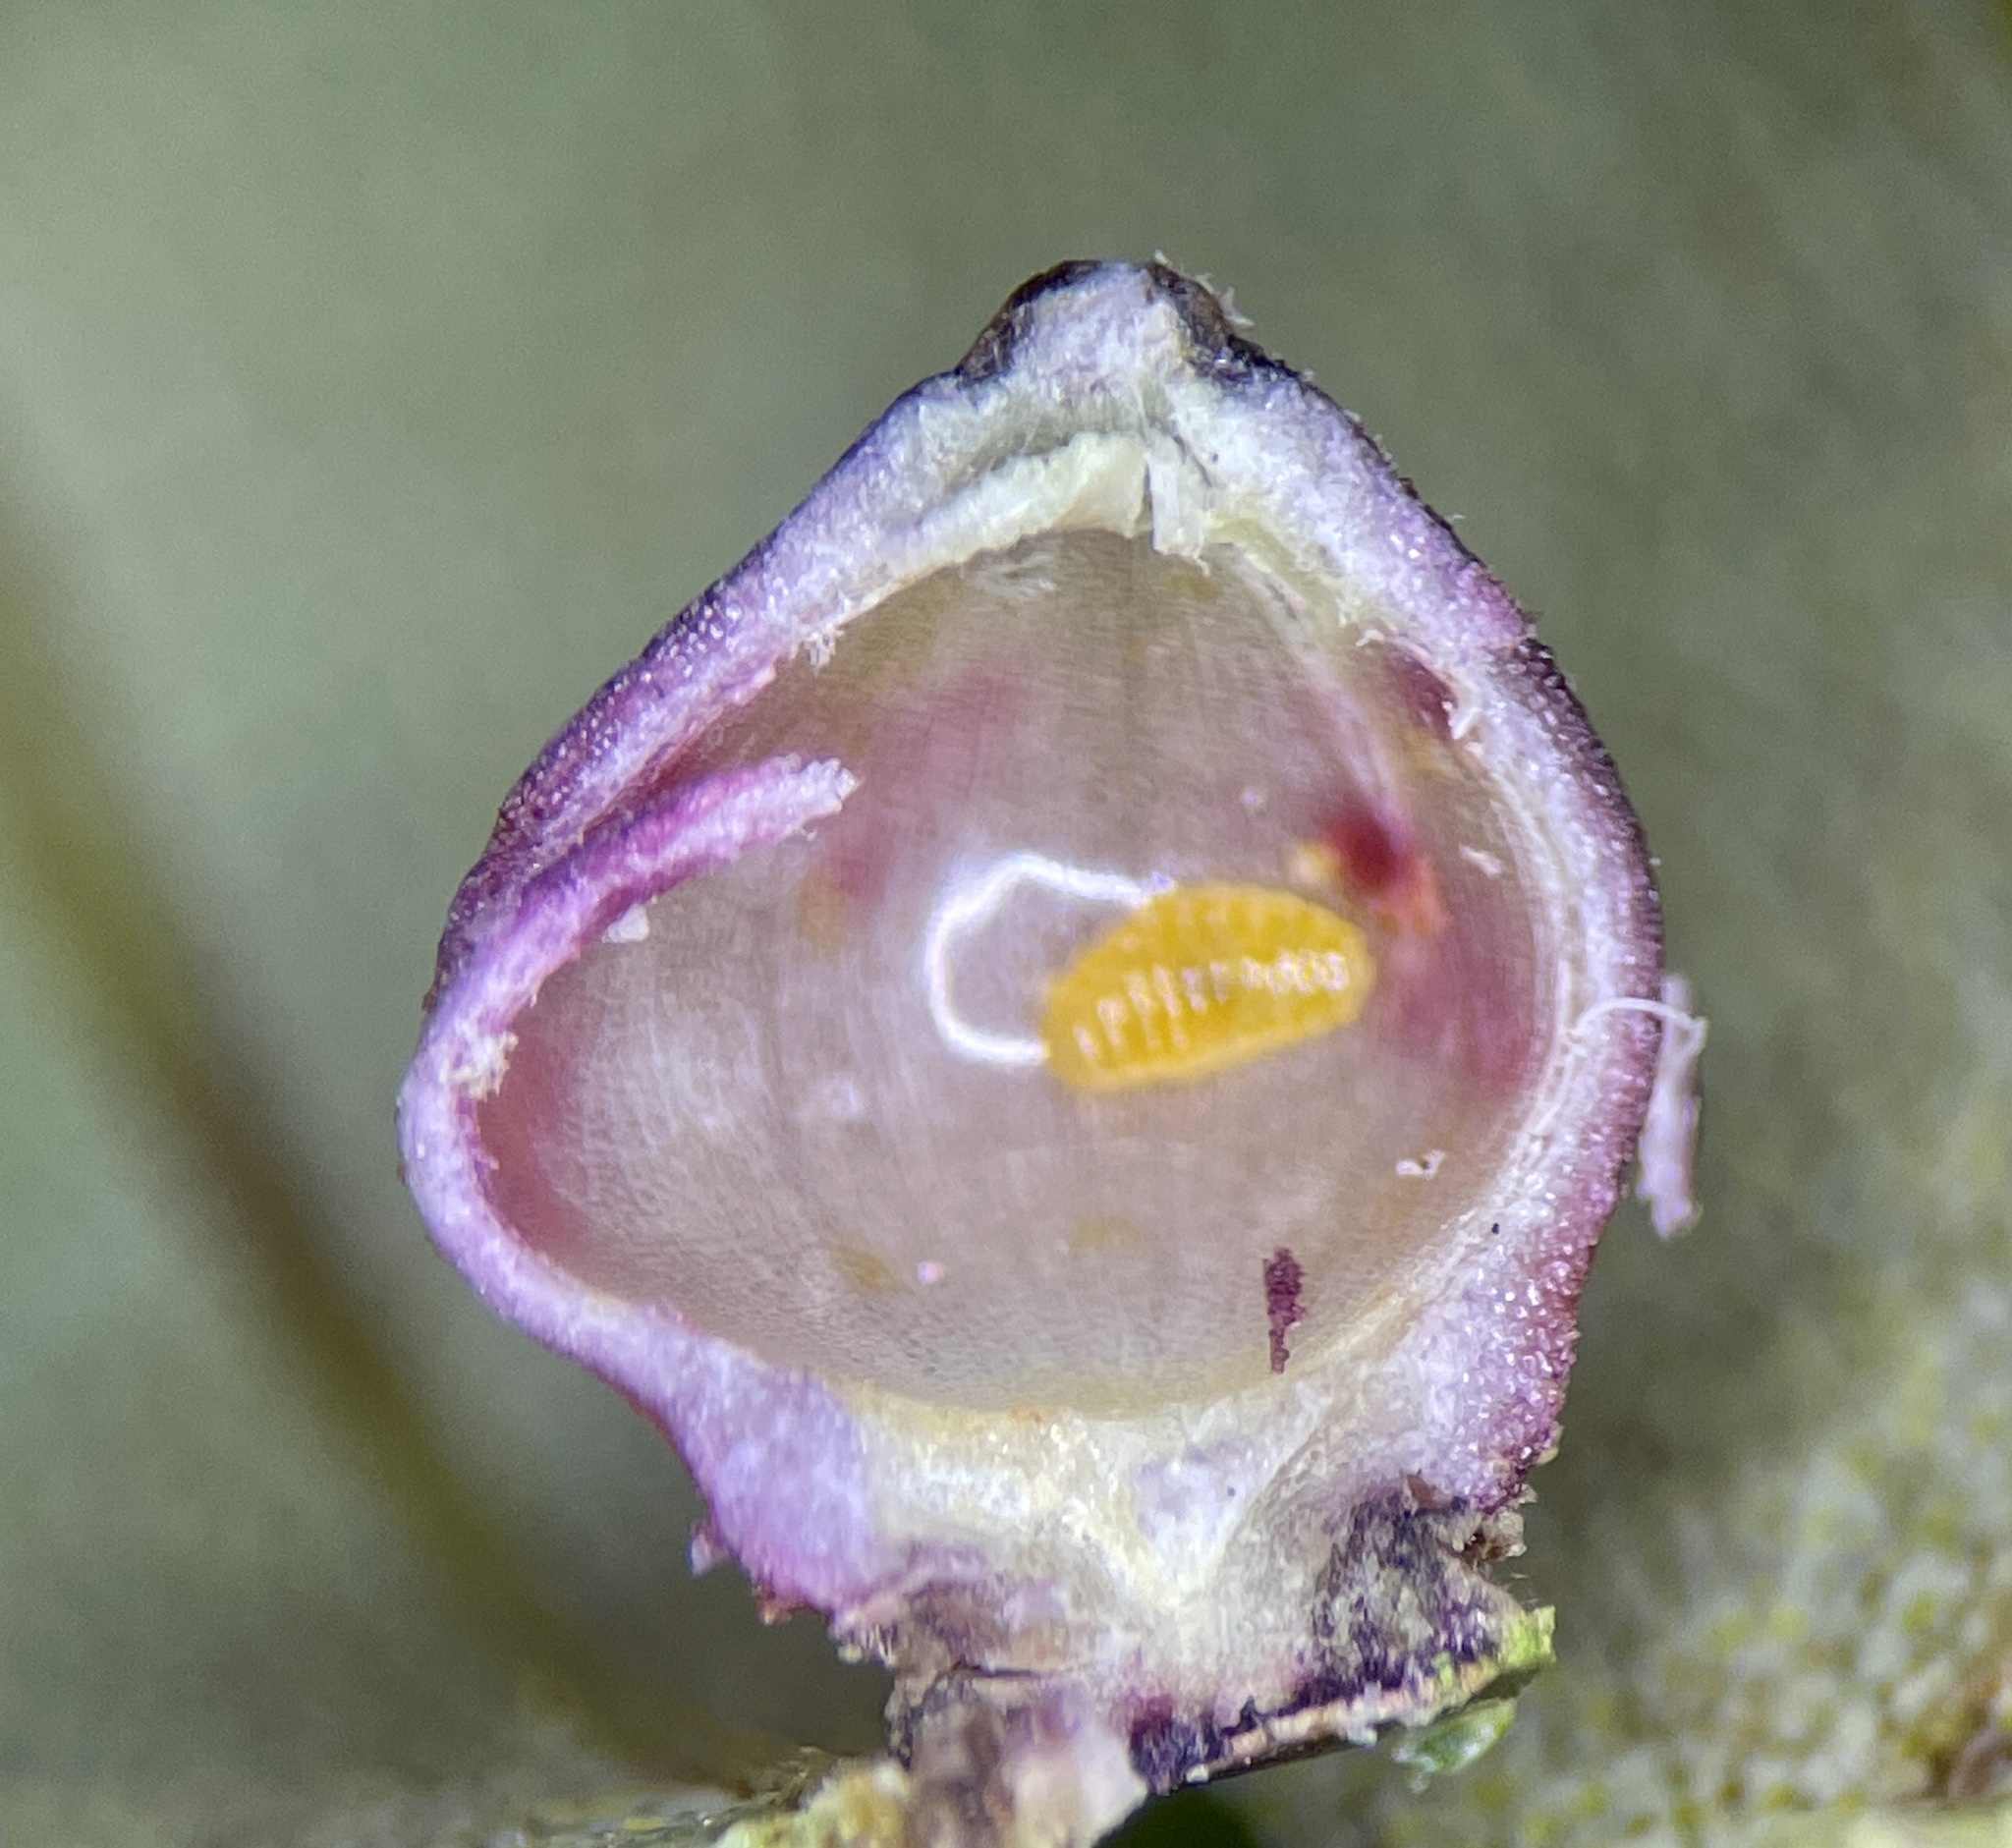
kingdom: Animalia
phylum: Arthropoda
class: Insecta
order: Diptera
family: Cecidomyiidae
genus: Caryomyia
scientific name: Caryomyia caryae
